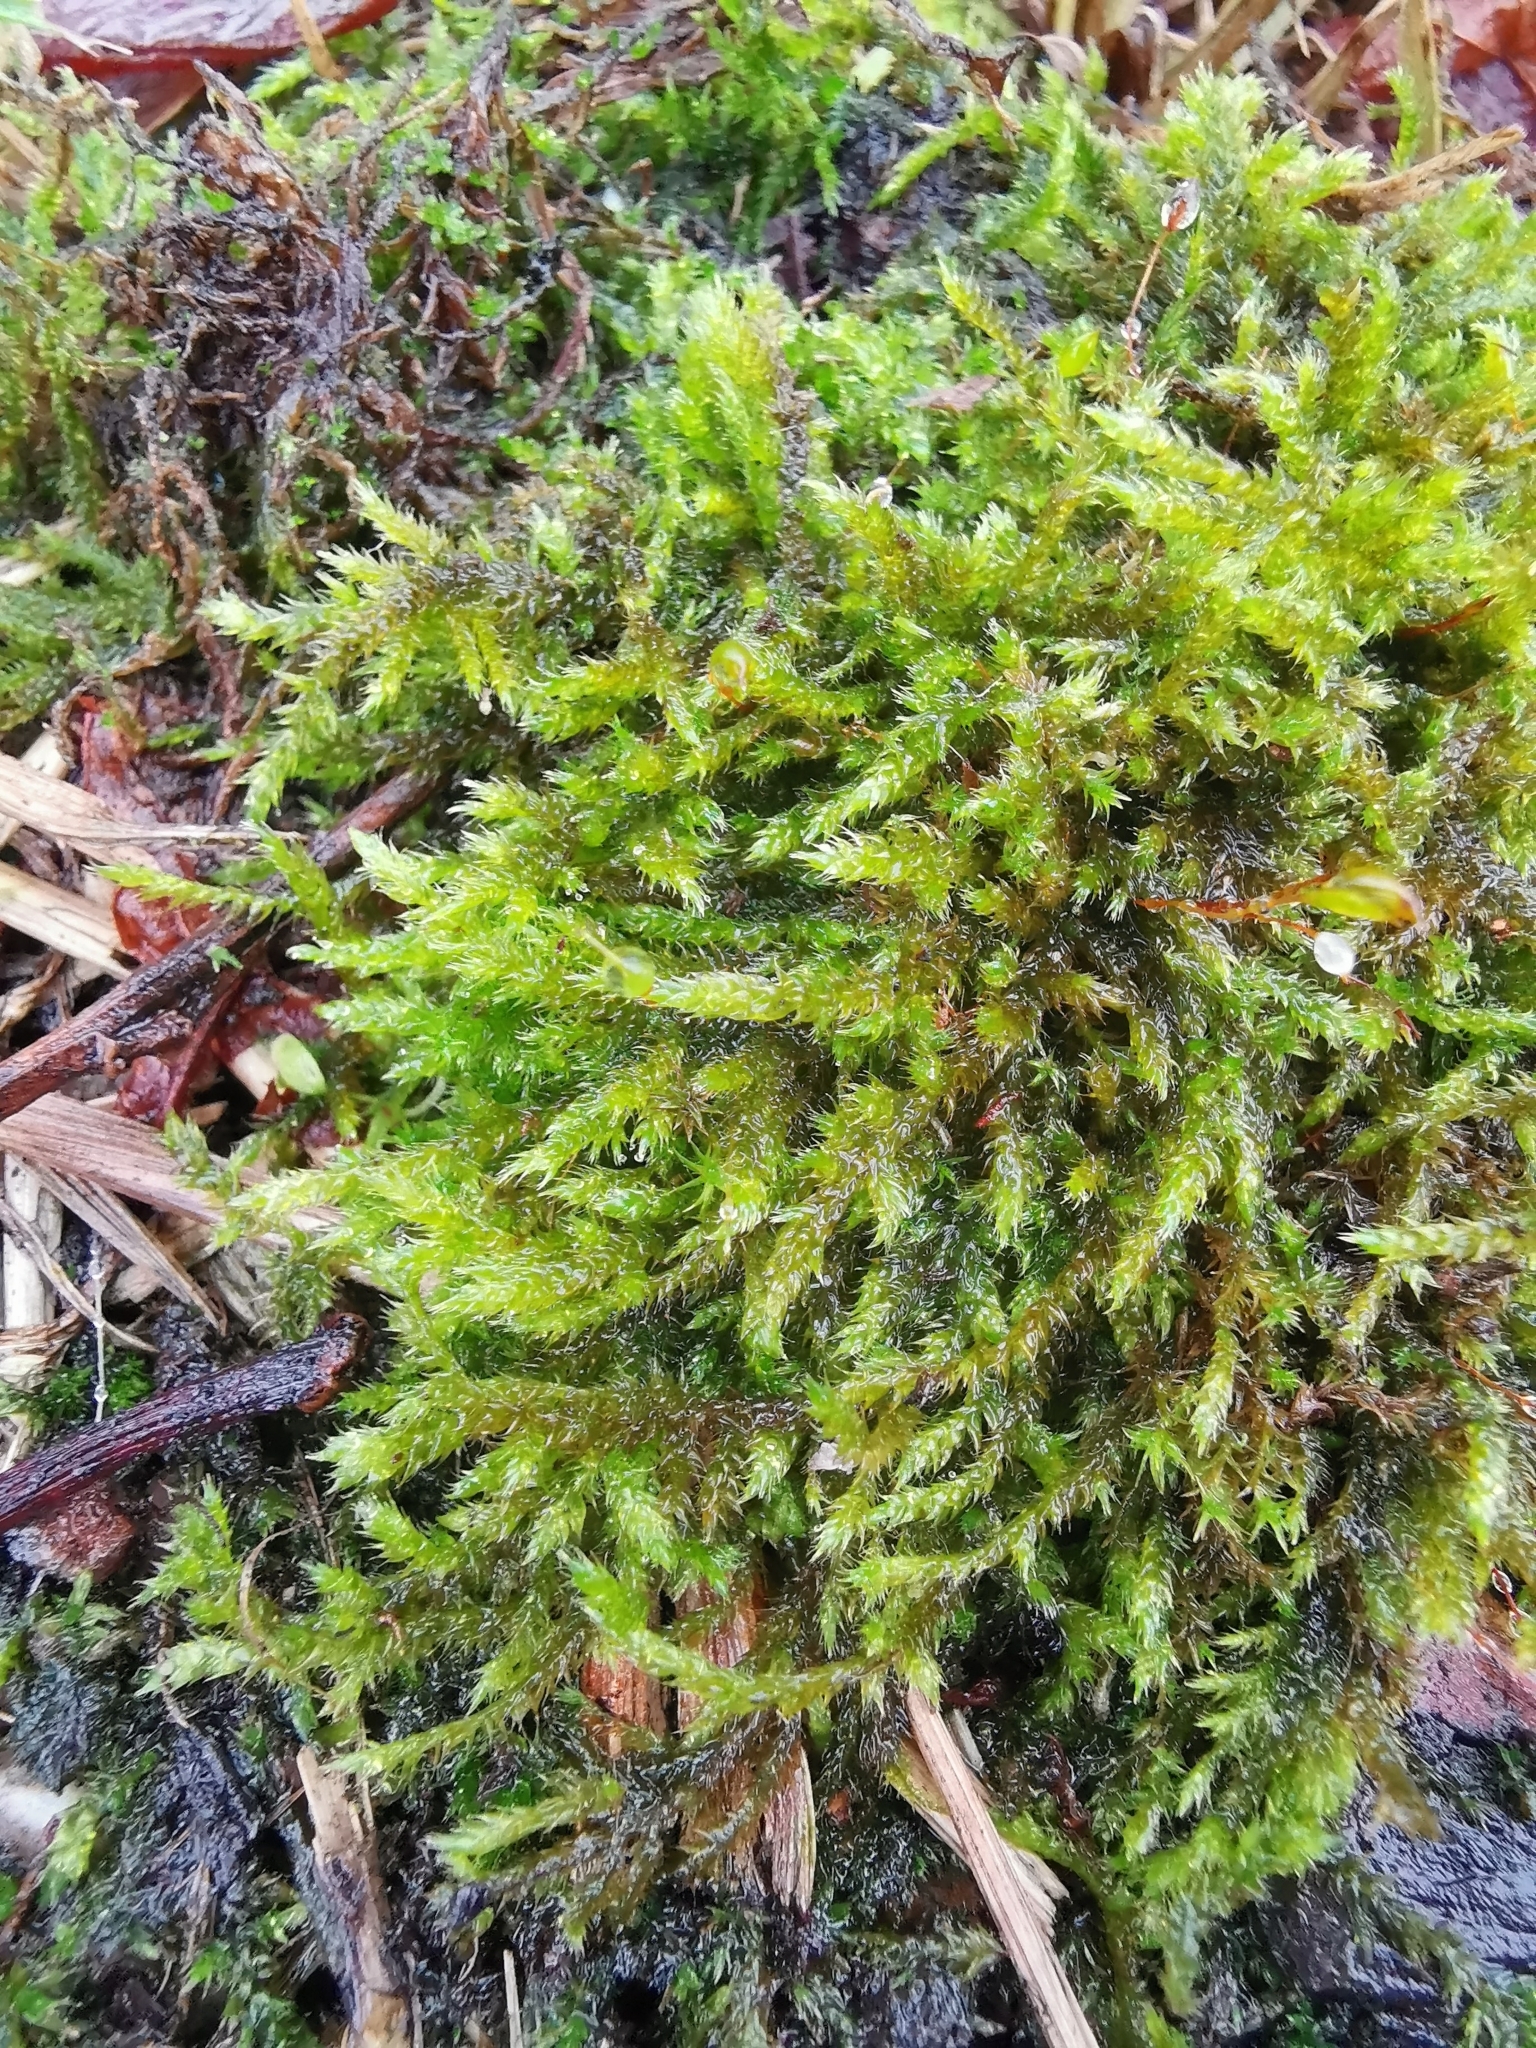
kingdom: Plantae
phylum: Bryophyta
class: Bryopsida
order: Hypnales
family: Hypnaceae
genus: Hypnum
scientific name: Hypnum cupressiforme
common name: Cypress-leaved plait-moss
